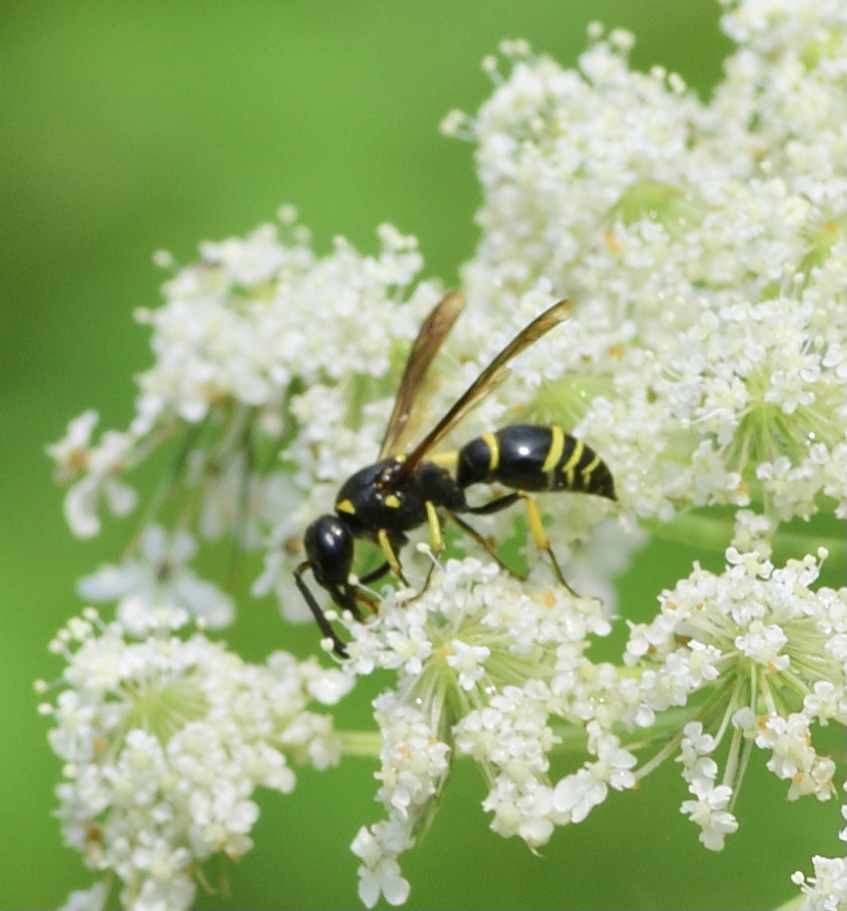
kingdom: Animalia
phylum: Arthropoda
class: Insecta
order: Hymenoptera
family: Vespidae
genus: Ancistrocerus
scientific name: Ancistrocerus adiabatus
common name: Bramble mason wasp
